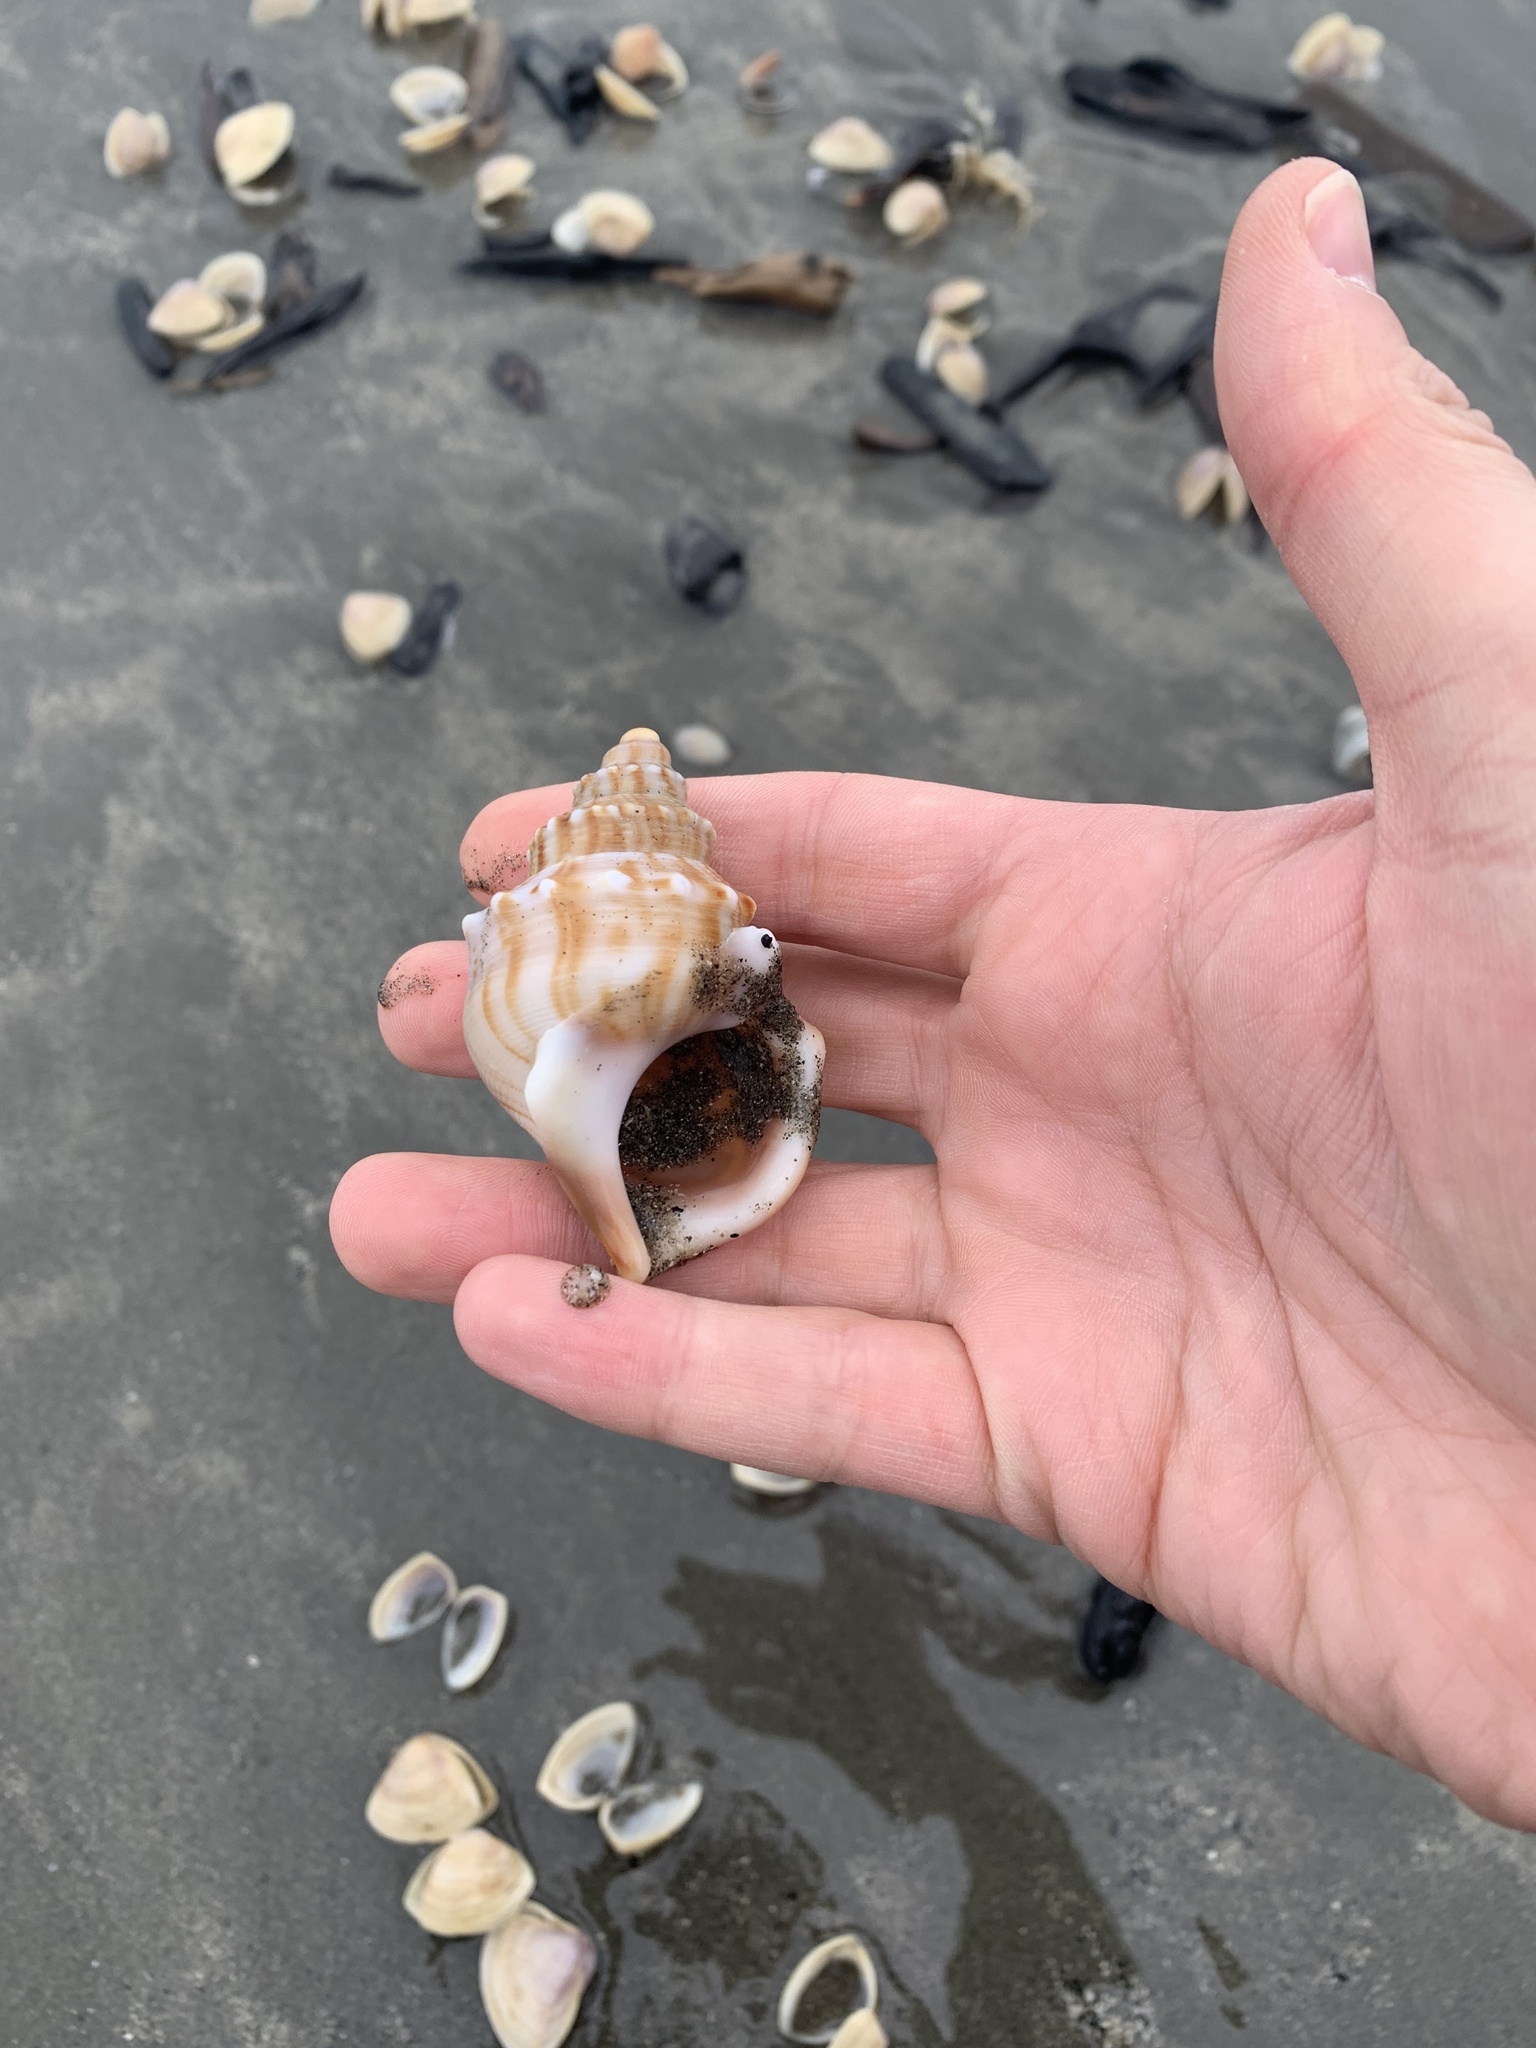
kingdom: Animalia
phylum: Mollusca
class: Gastropoda
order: Littorinimorpha
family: Struthiolariidae
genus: Struthiolaria
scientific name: Struthiolaria papulosa
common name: Large ostrich foot
